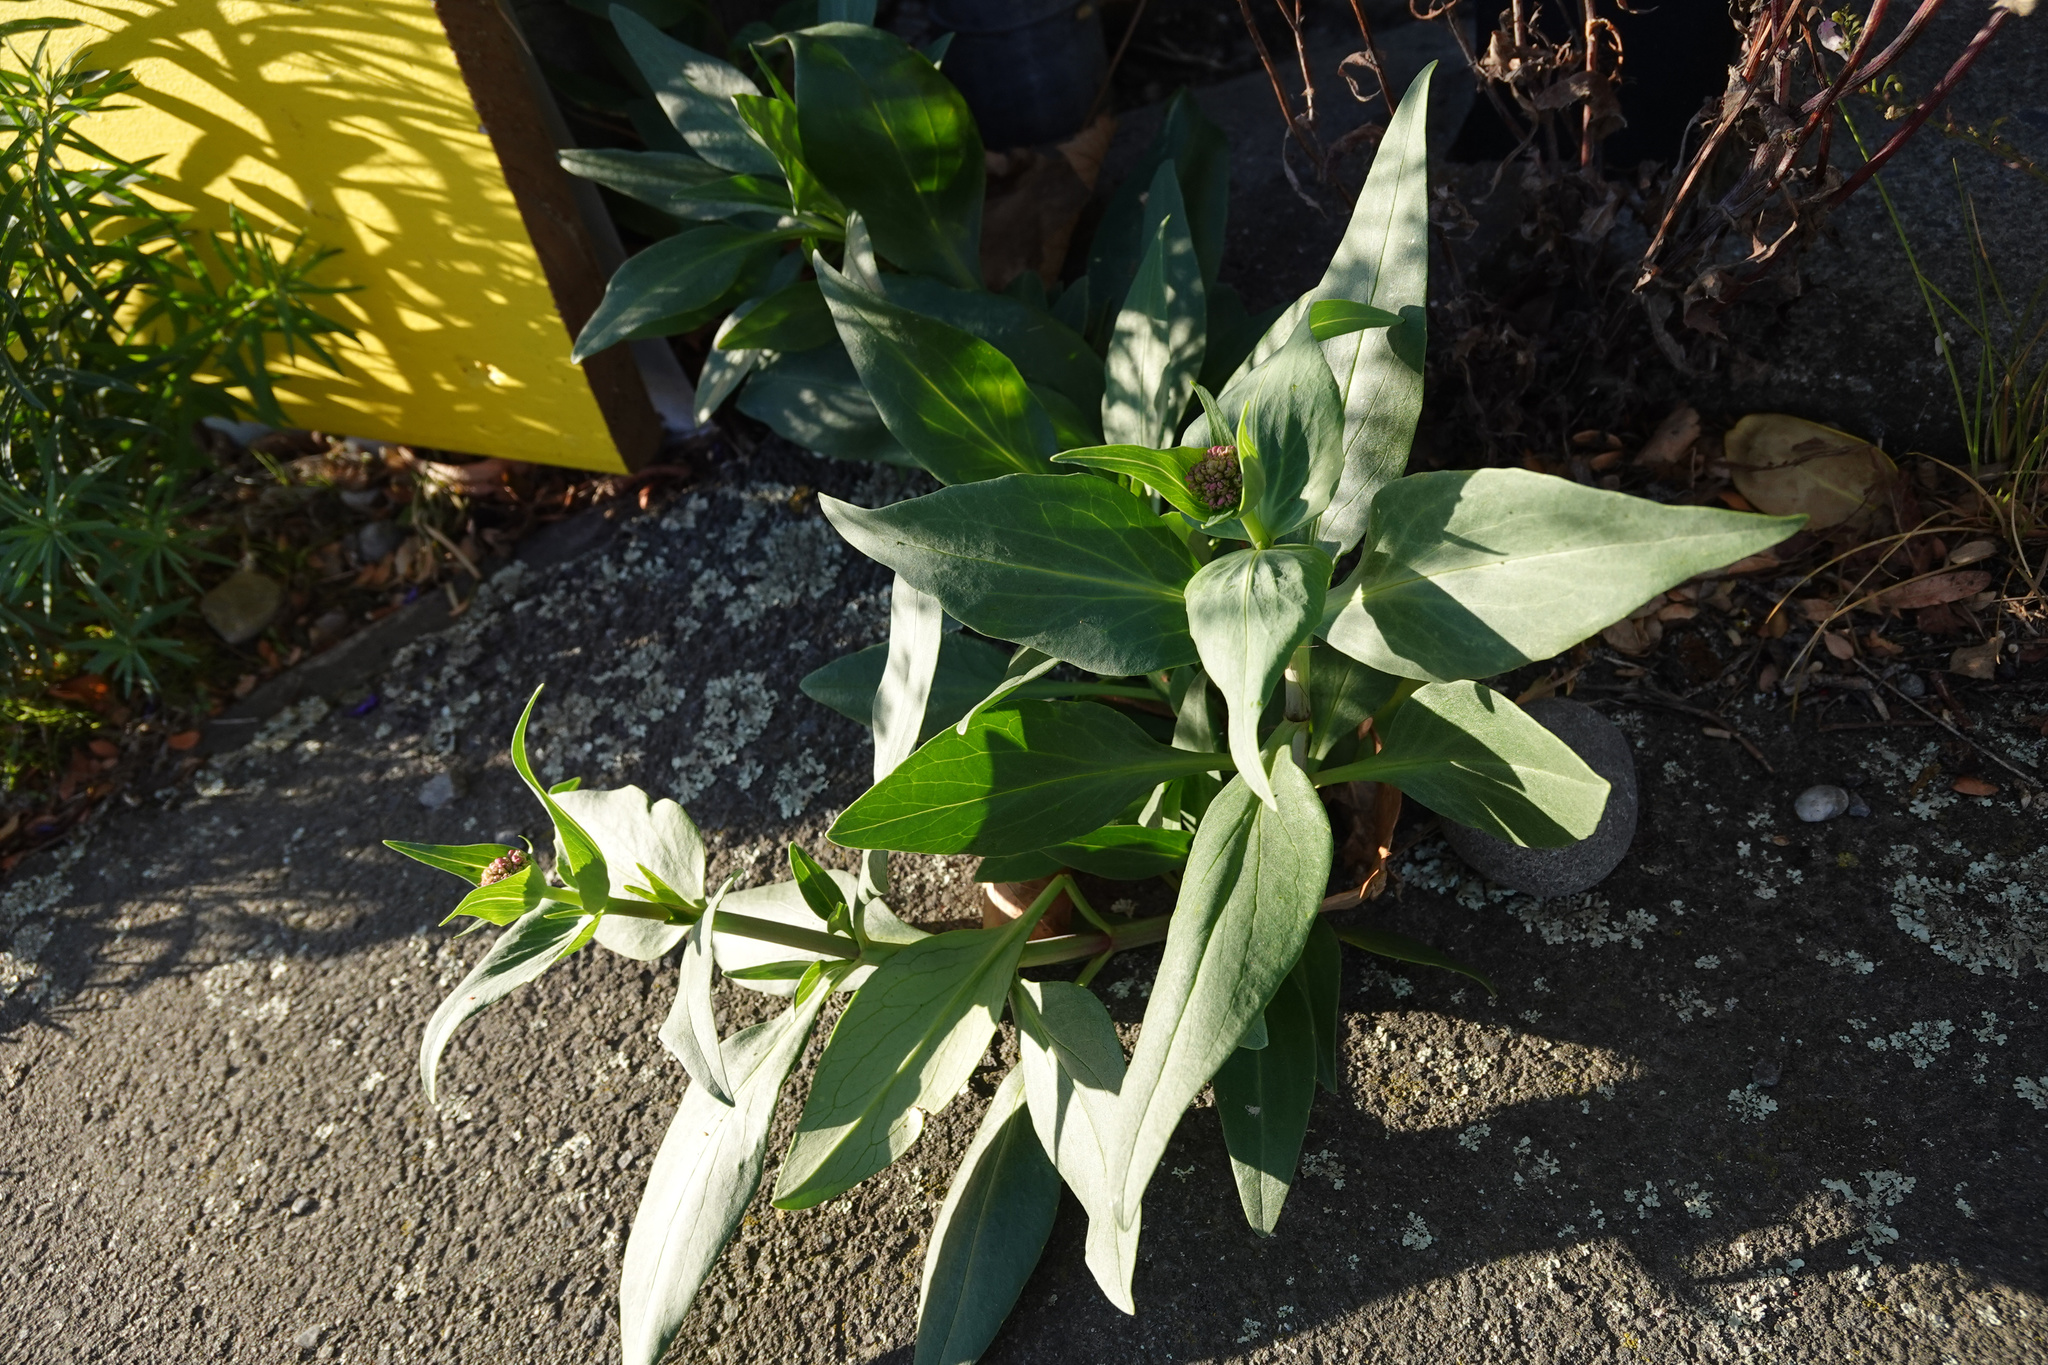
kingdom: Plantae
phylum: Tracheophyta
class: Magnoliopsida
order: Dipsacales
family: Caprifoliaceae
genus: Centranthus
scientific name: Centranthus ruber
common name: Red valerian
